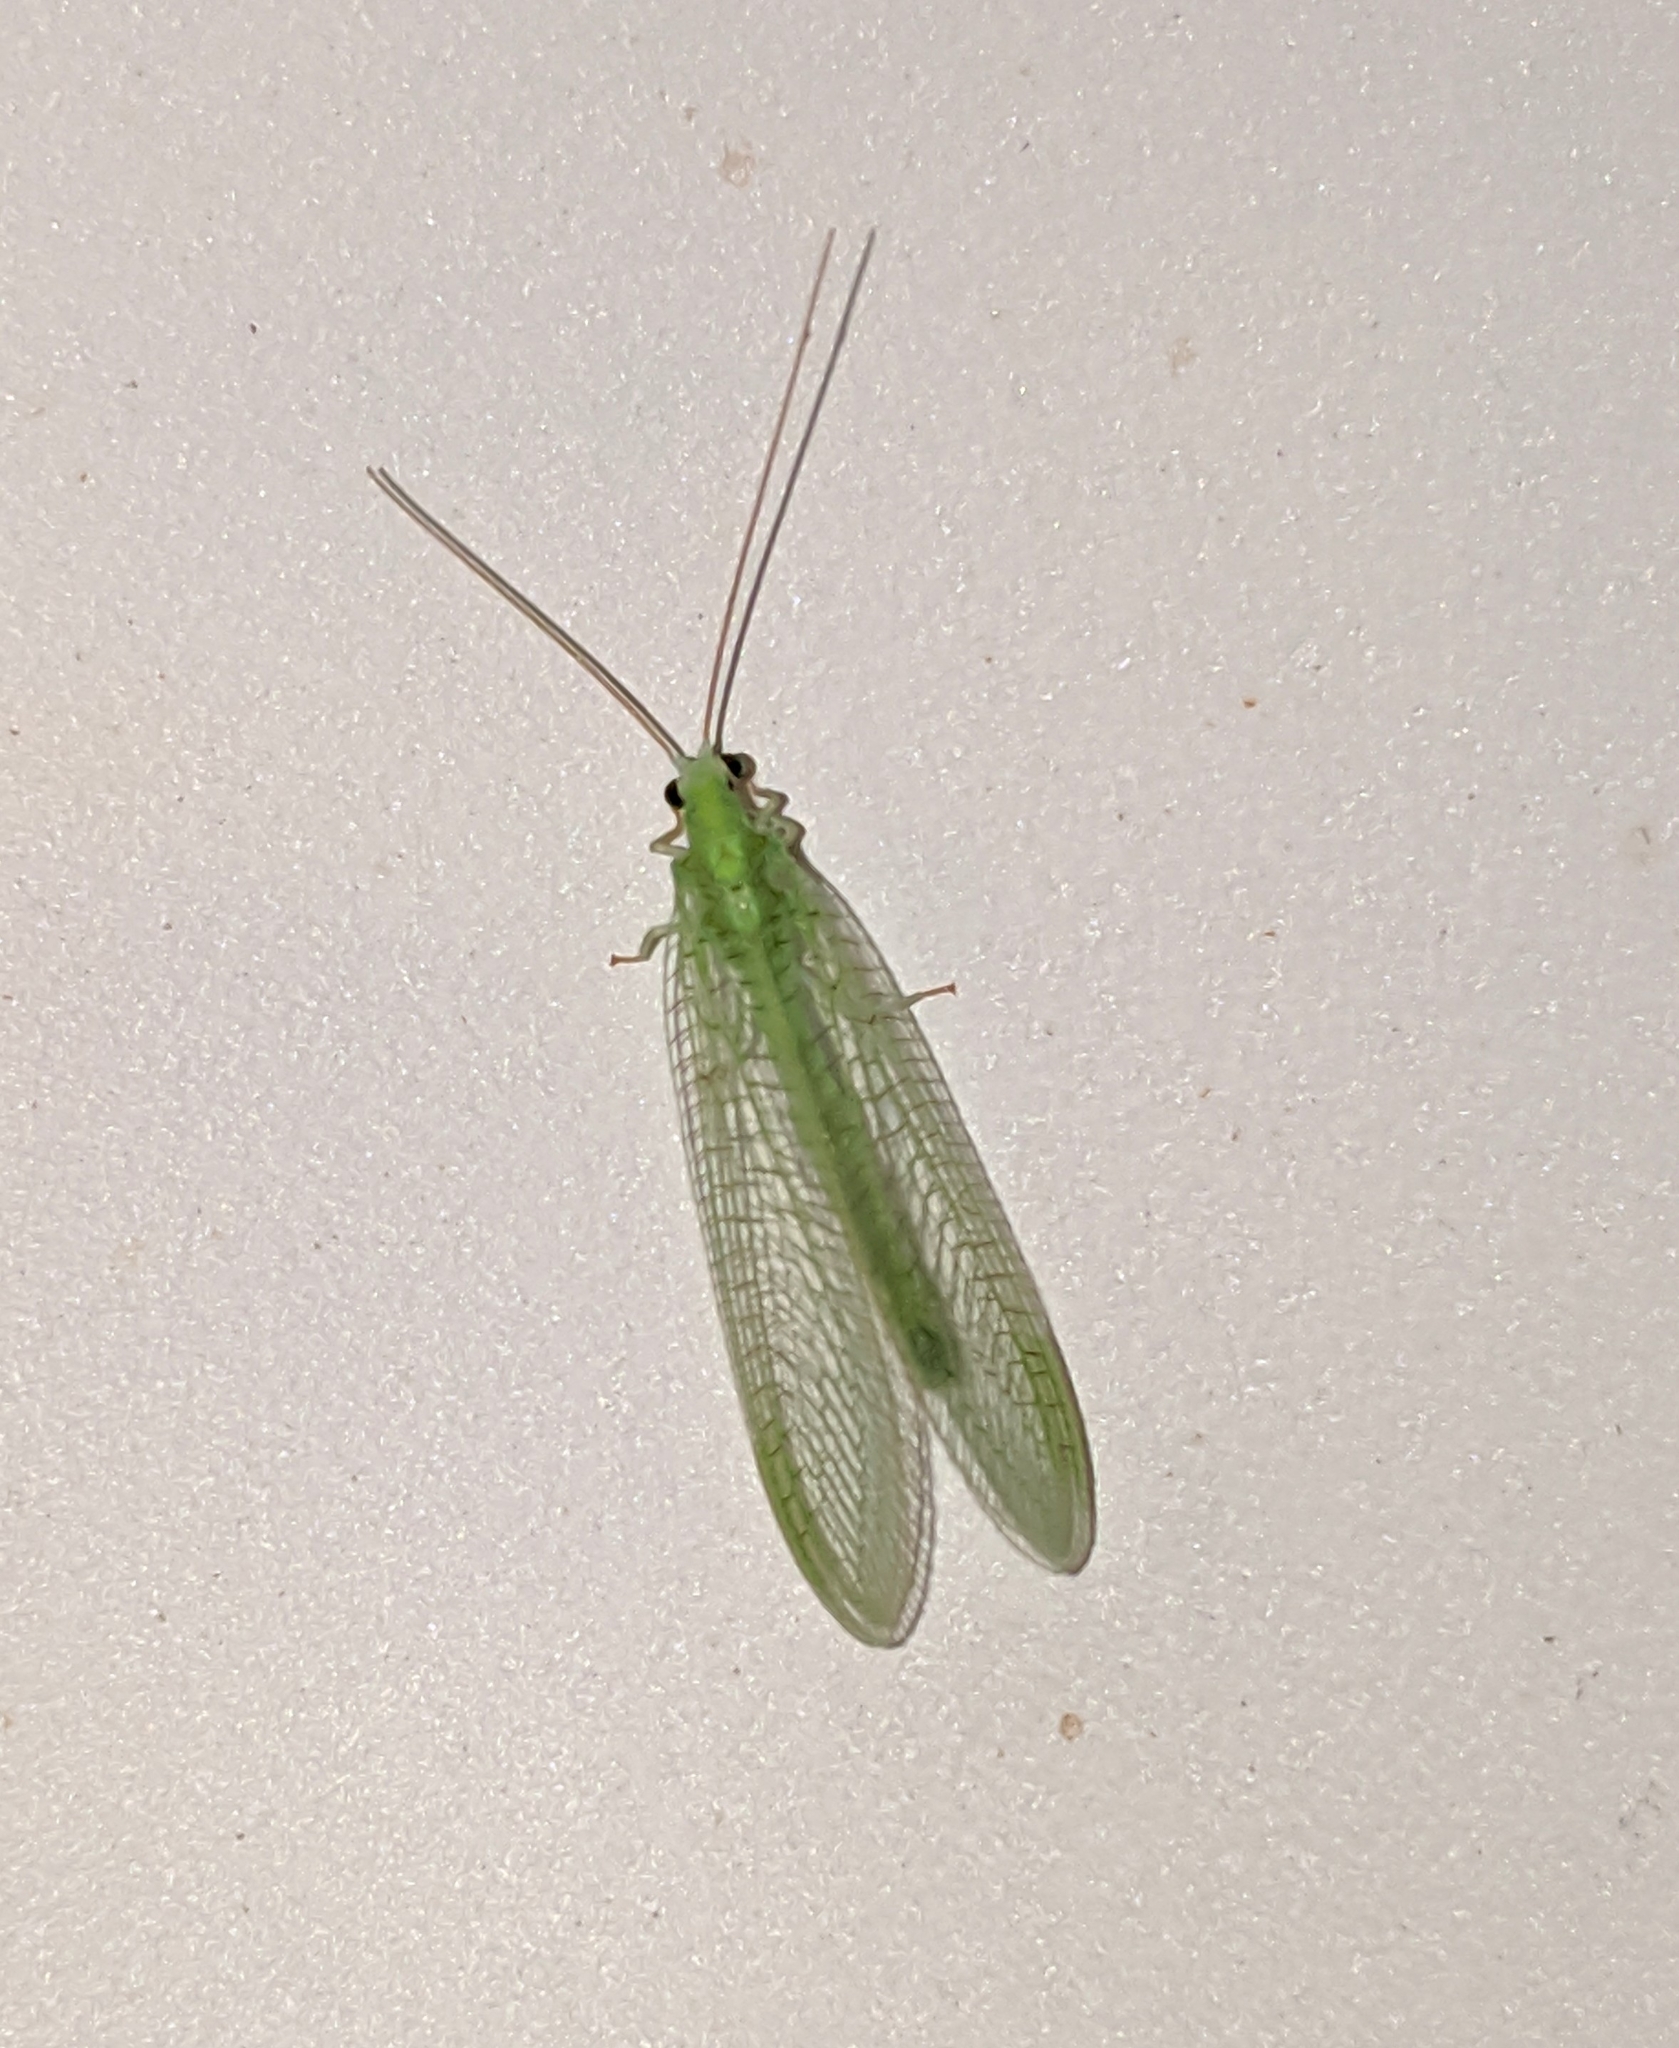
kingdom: Animalia
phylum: Arthropoda
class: Insecta
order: Neuroptera
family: Chrysopidae
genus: Chrysopa
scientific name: Chrysopa nigricornis
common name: Black-horned green lacewing
